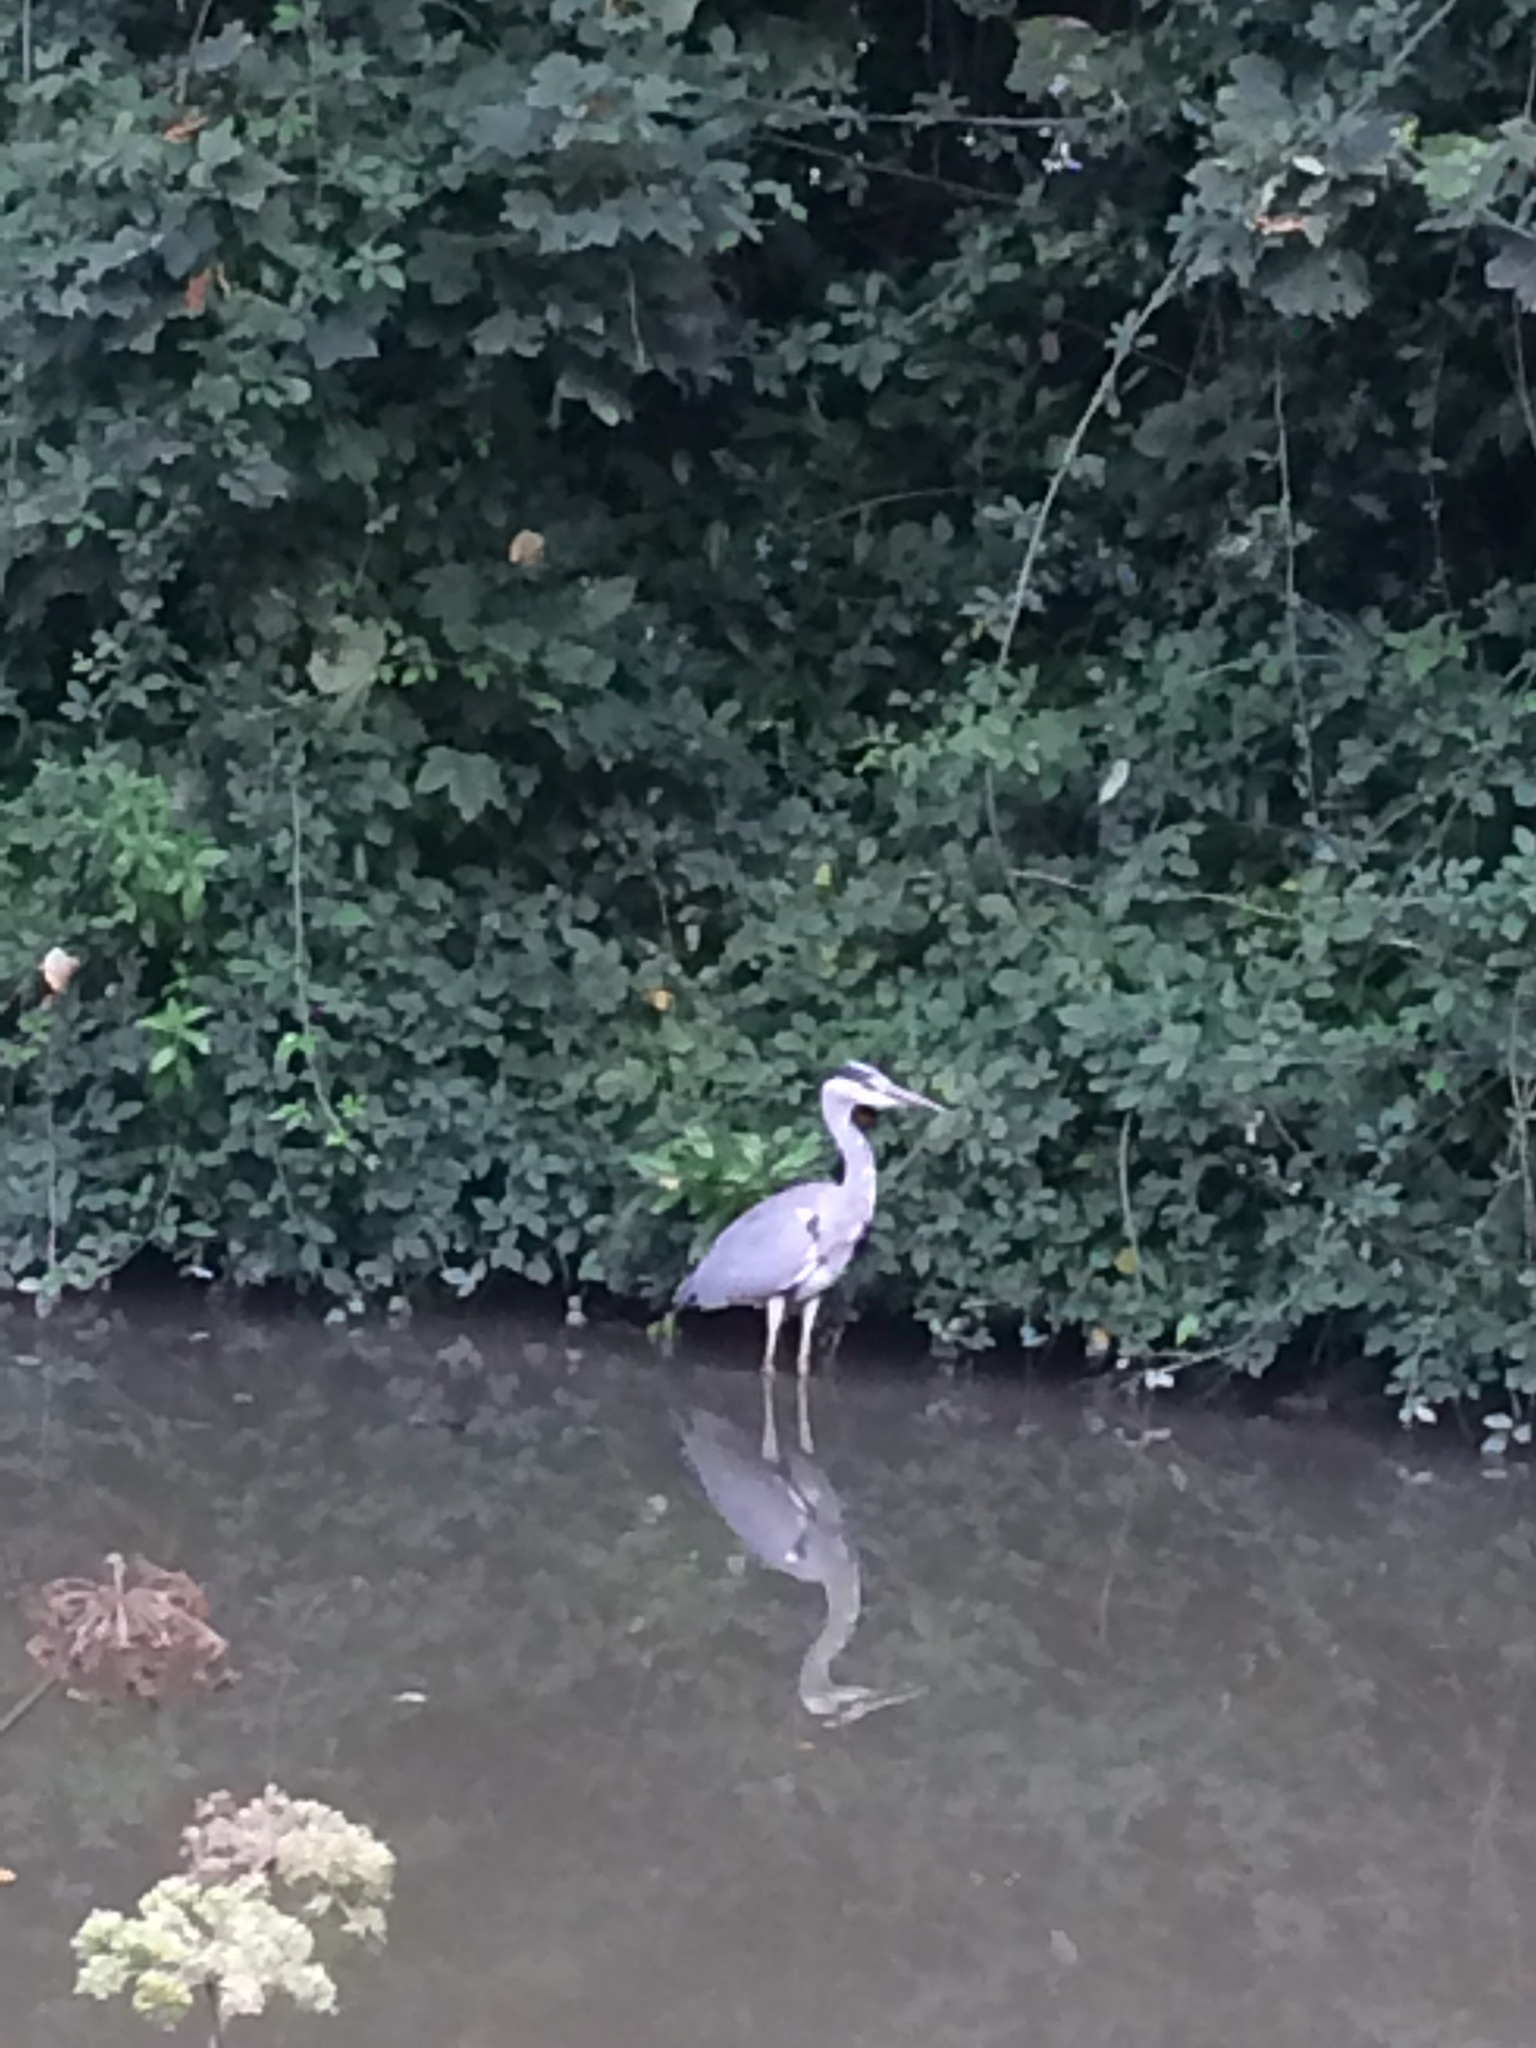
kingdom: Animalia
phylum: Chordata
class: Aves
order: Pelecaniformes
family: Ardeidae
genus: Ardea
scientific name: Ardea cinerea
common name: Grey heron
